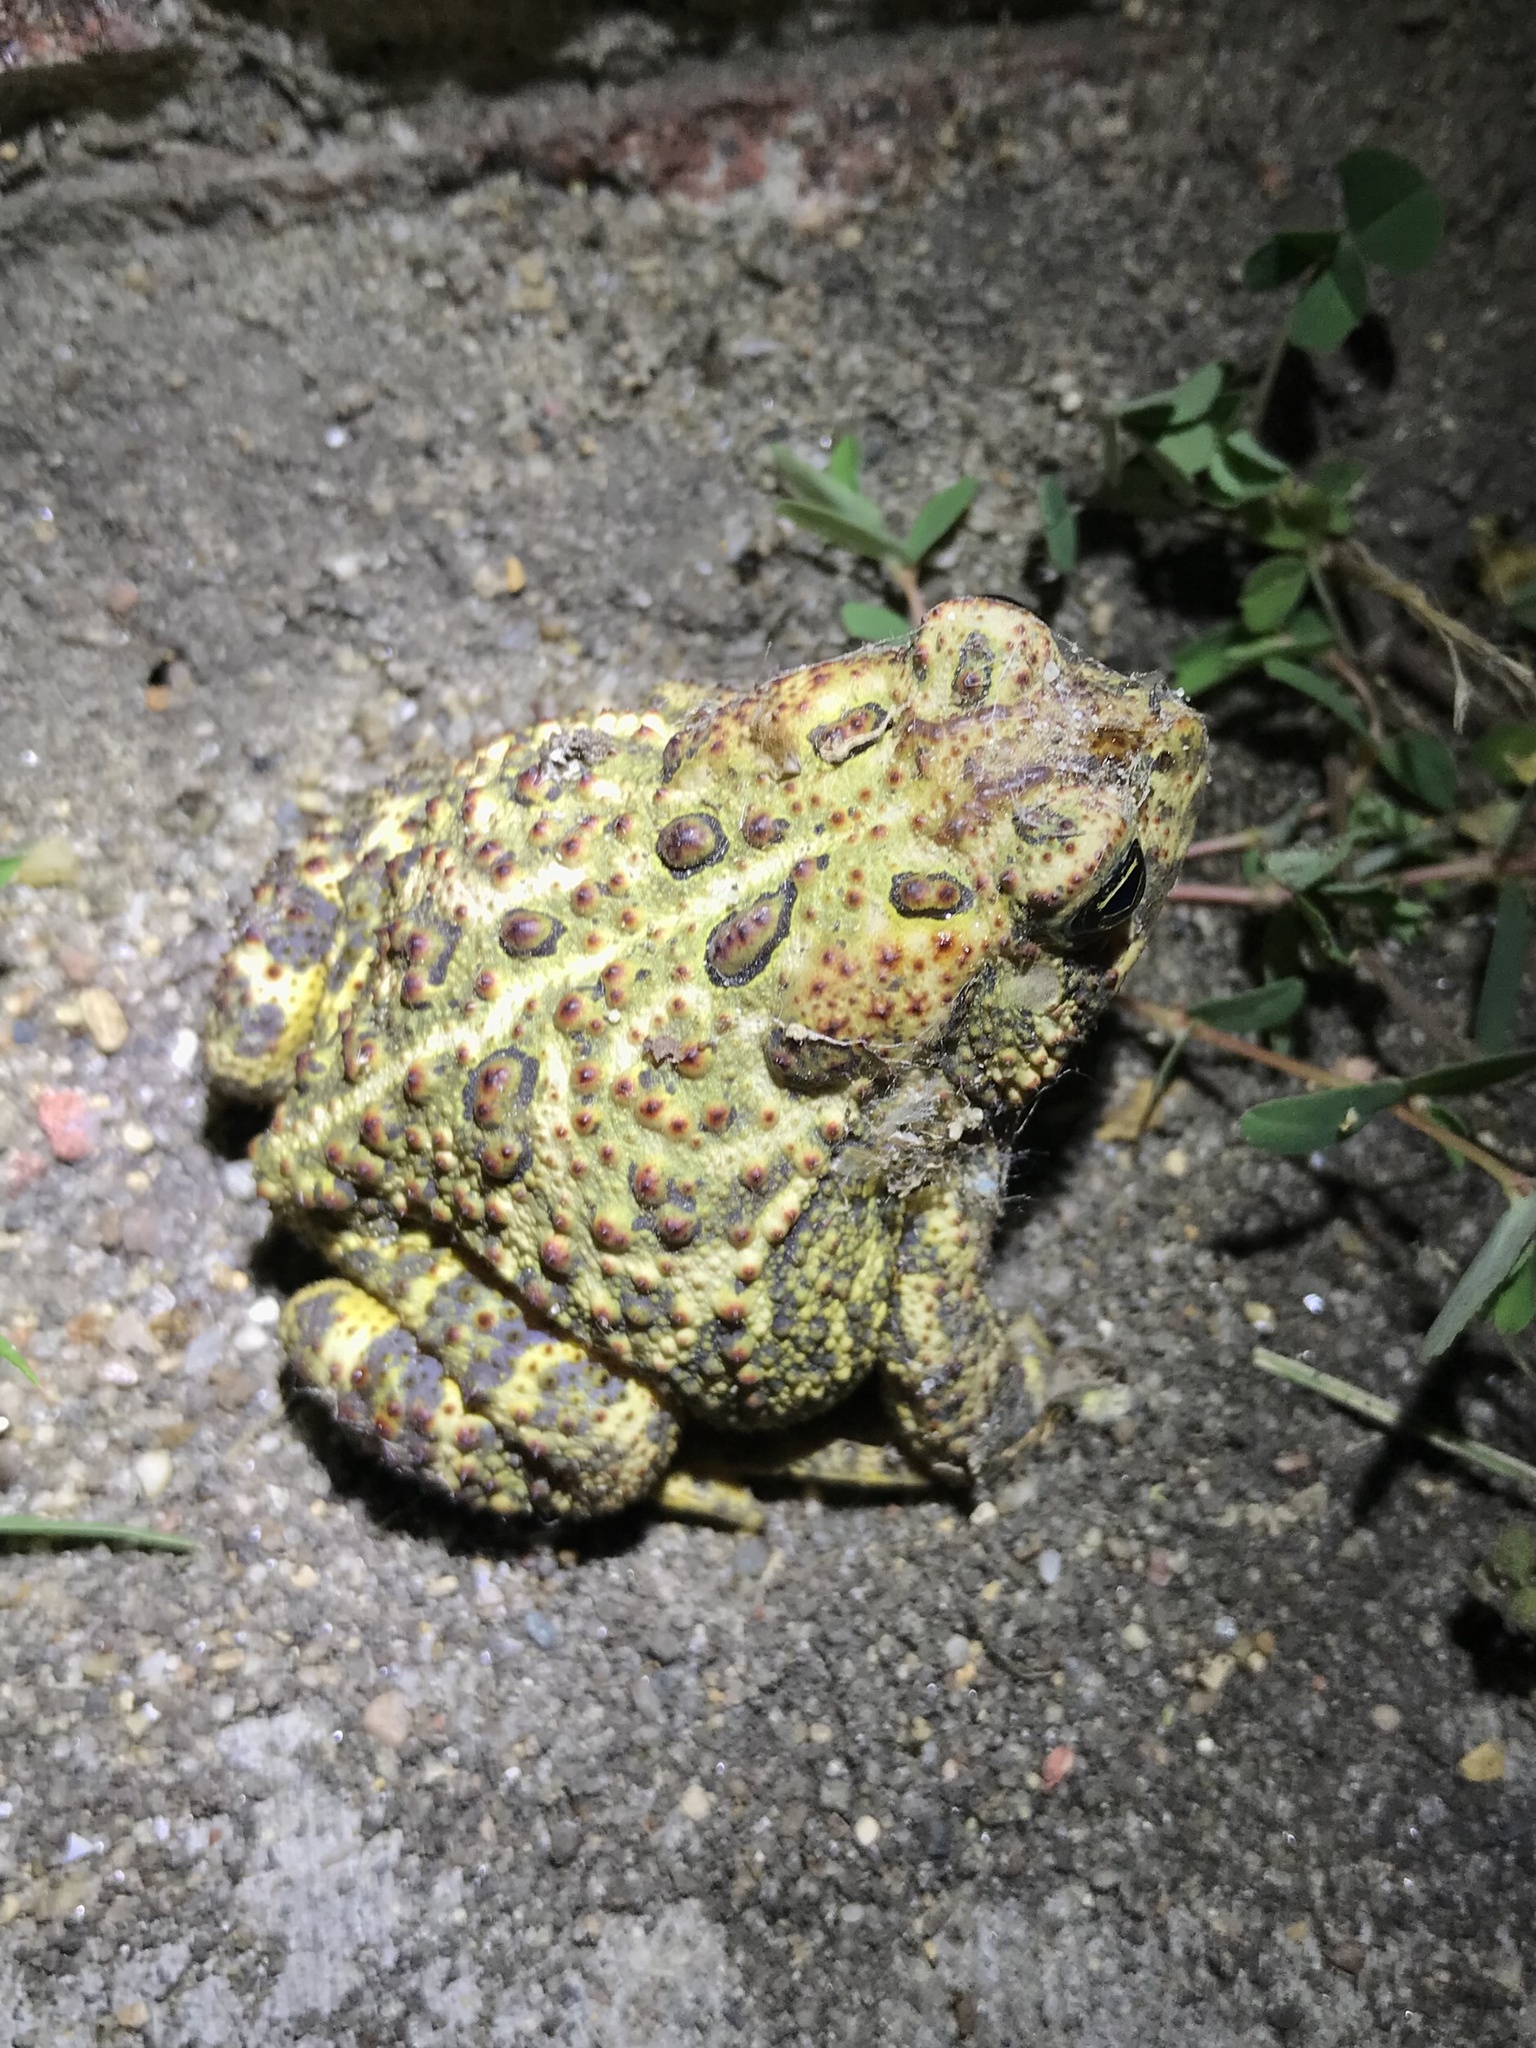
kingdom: Animalia
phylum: Chordata
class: Amphibia
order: Anura
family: Bufonidae
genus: Anaxyrus
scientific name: Anaxyrus hemiophrys
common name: Canadian toad
